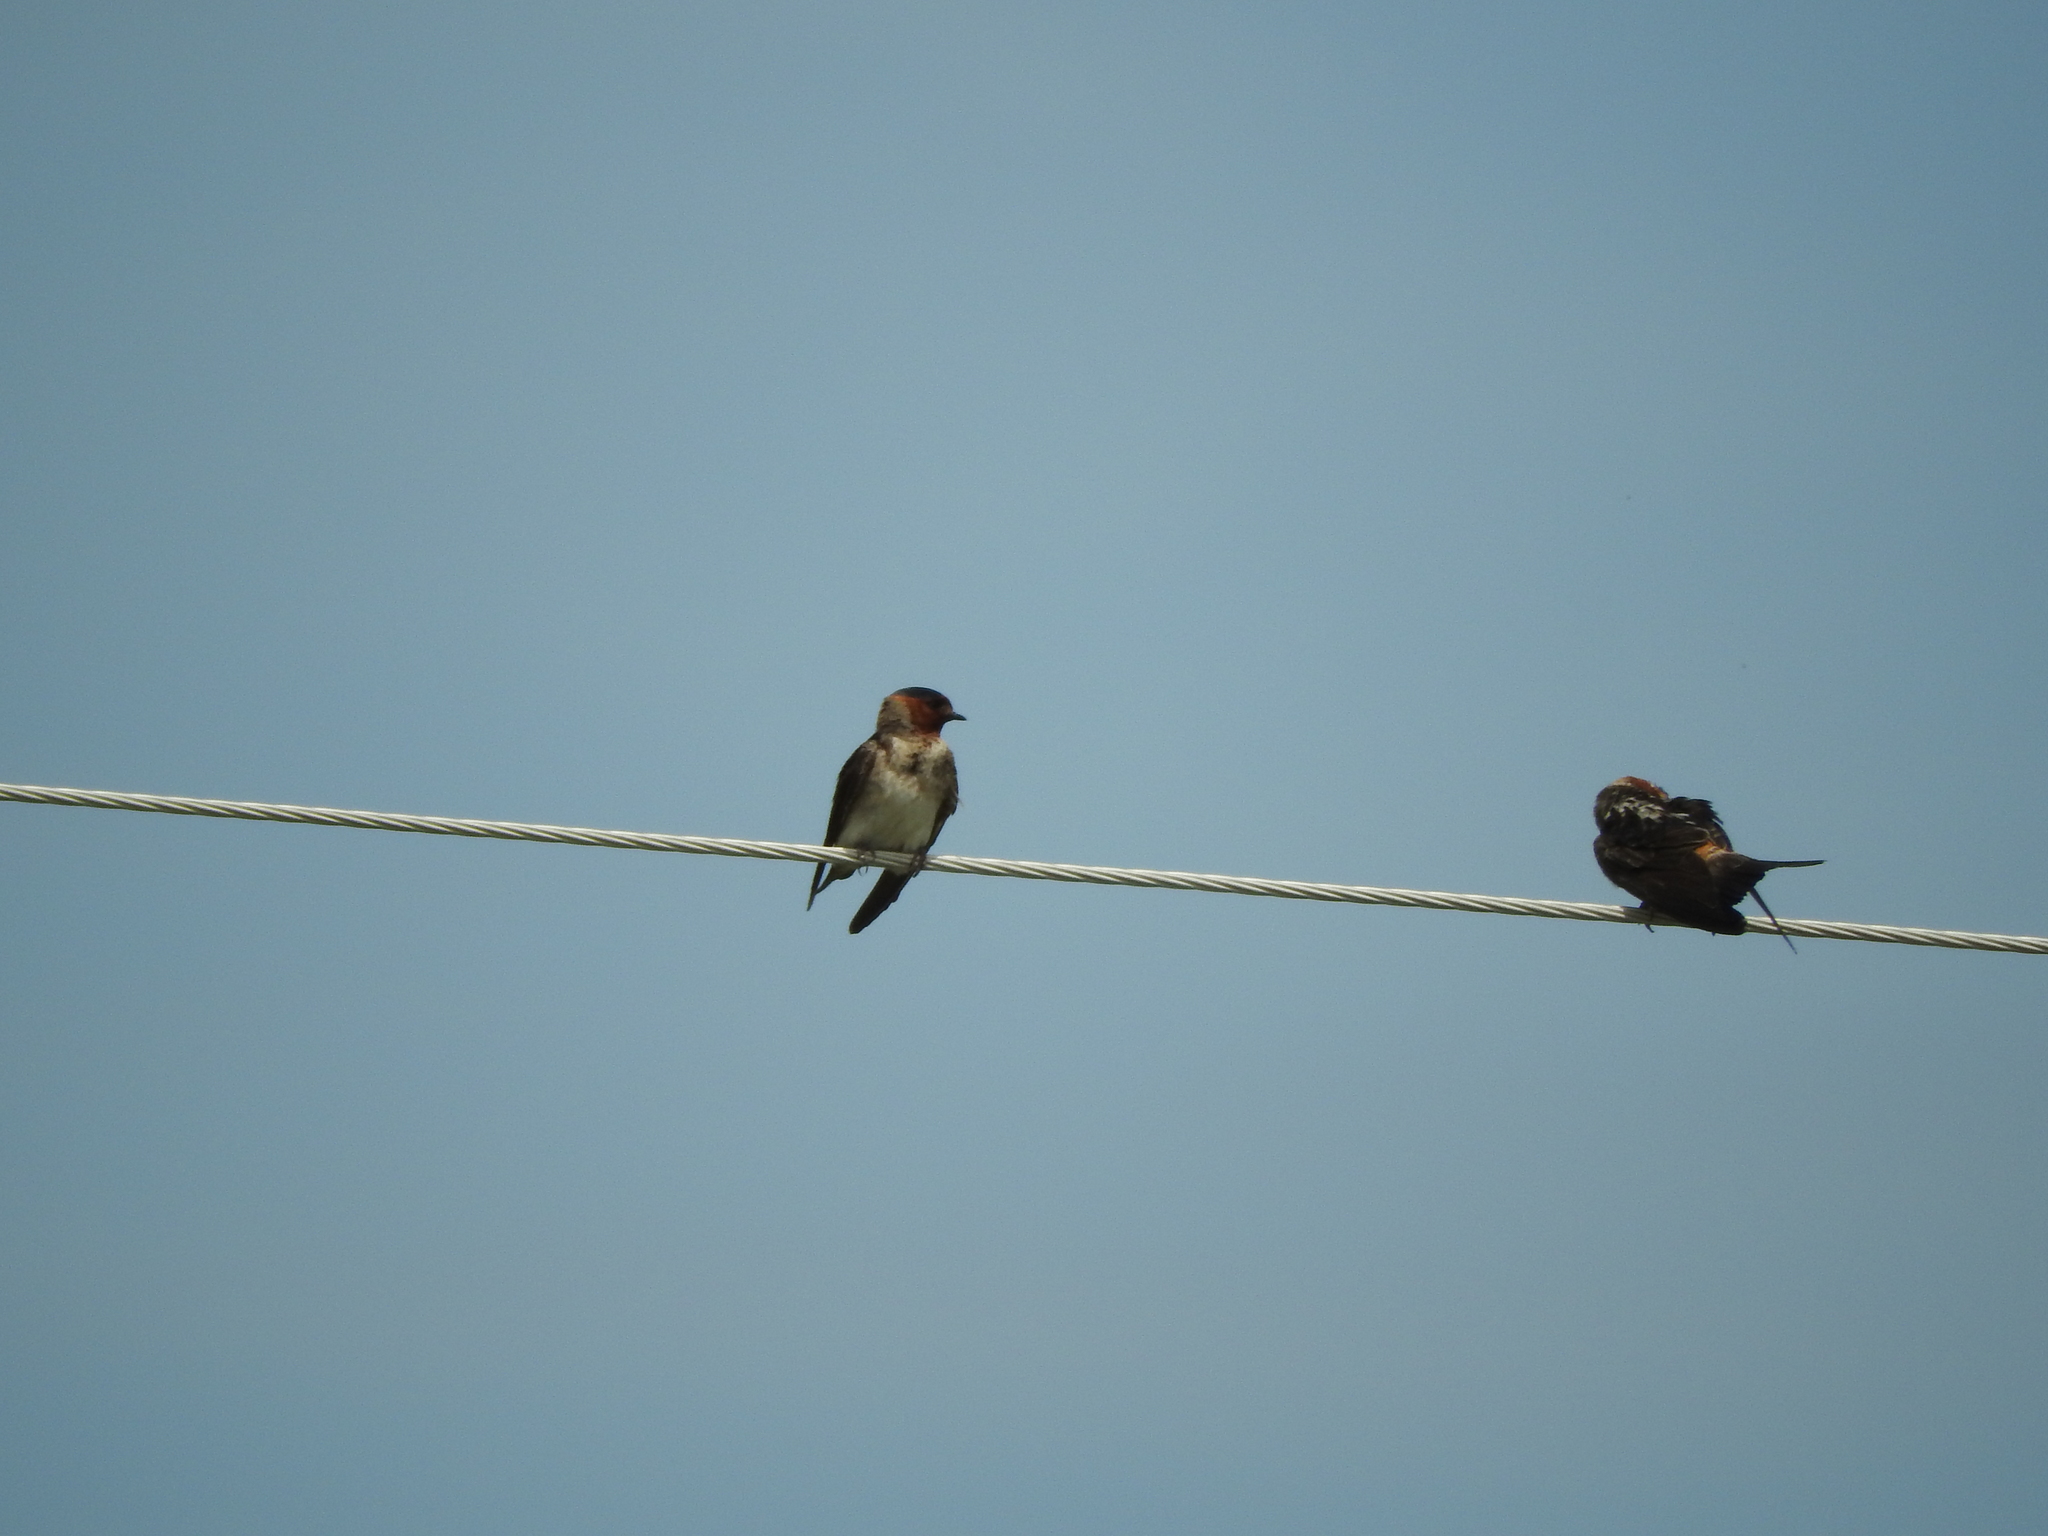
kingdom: Animalia
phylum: Chordata
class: Aves
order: Passeriformes
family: Hirundinidae
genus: Petrochelidon
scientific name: Petrochelidon pyrrhonota
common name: American cliff swallow
